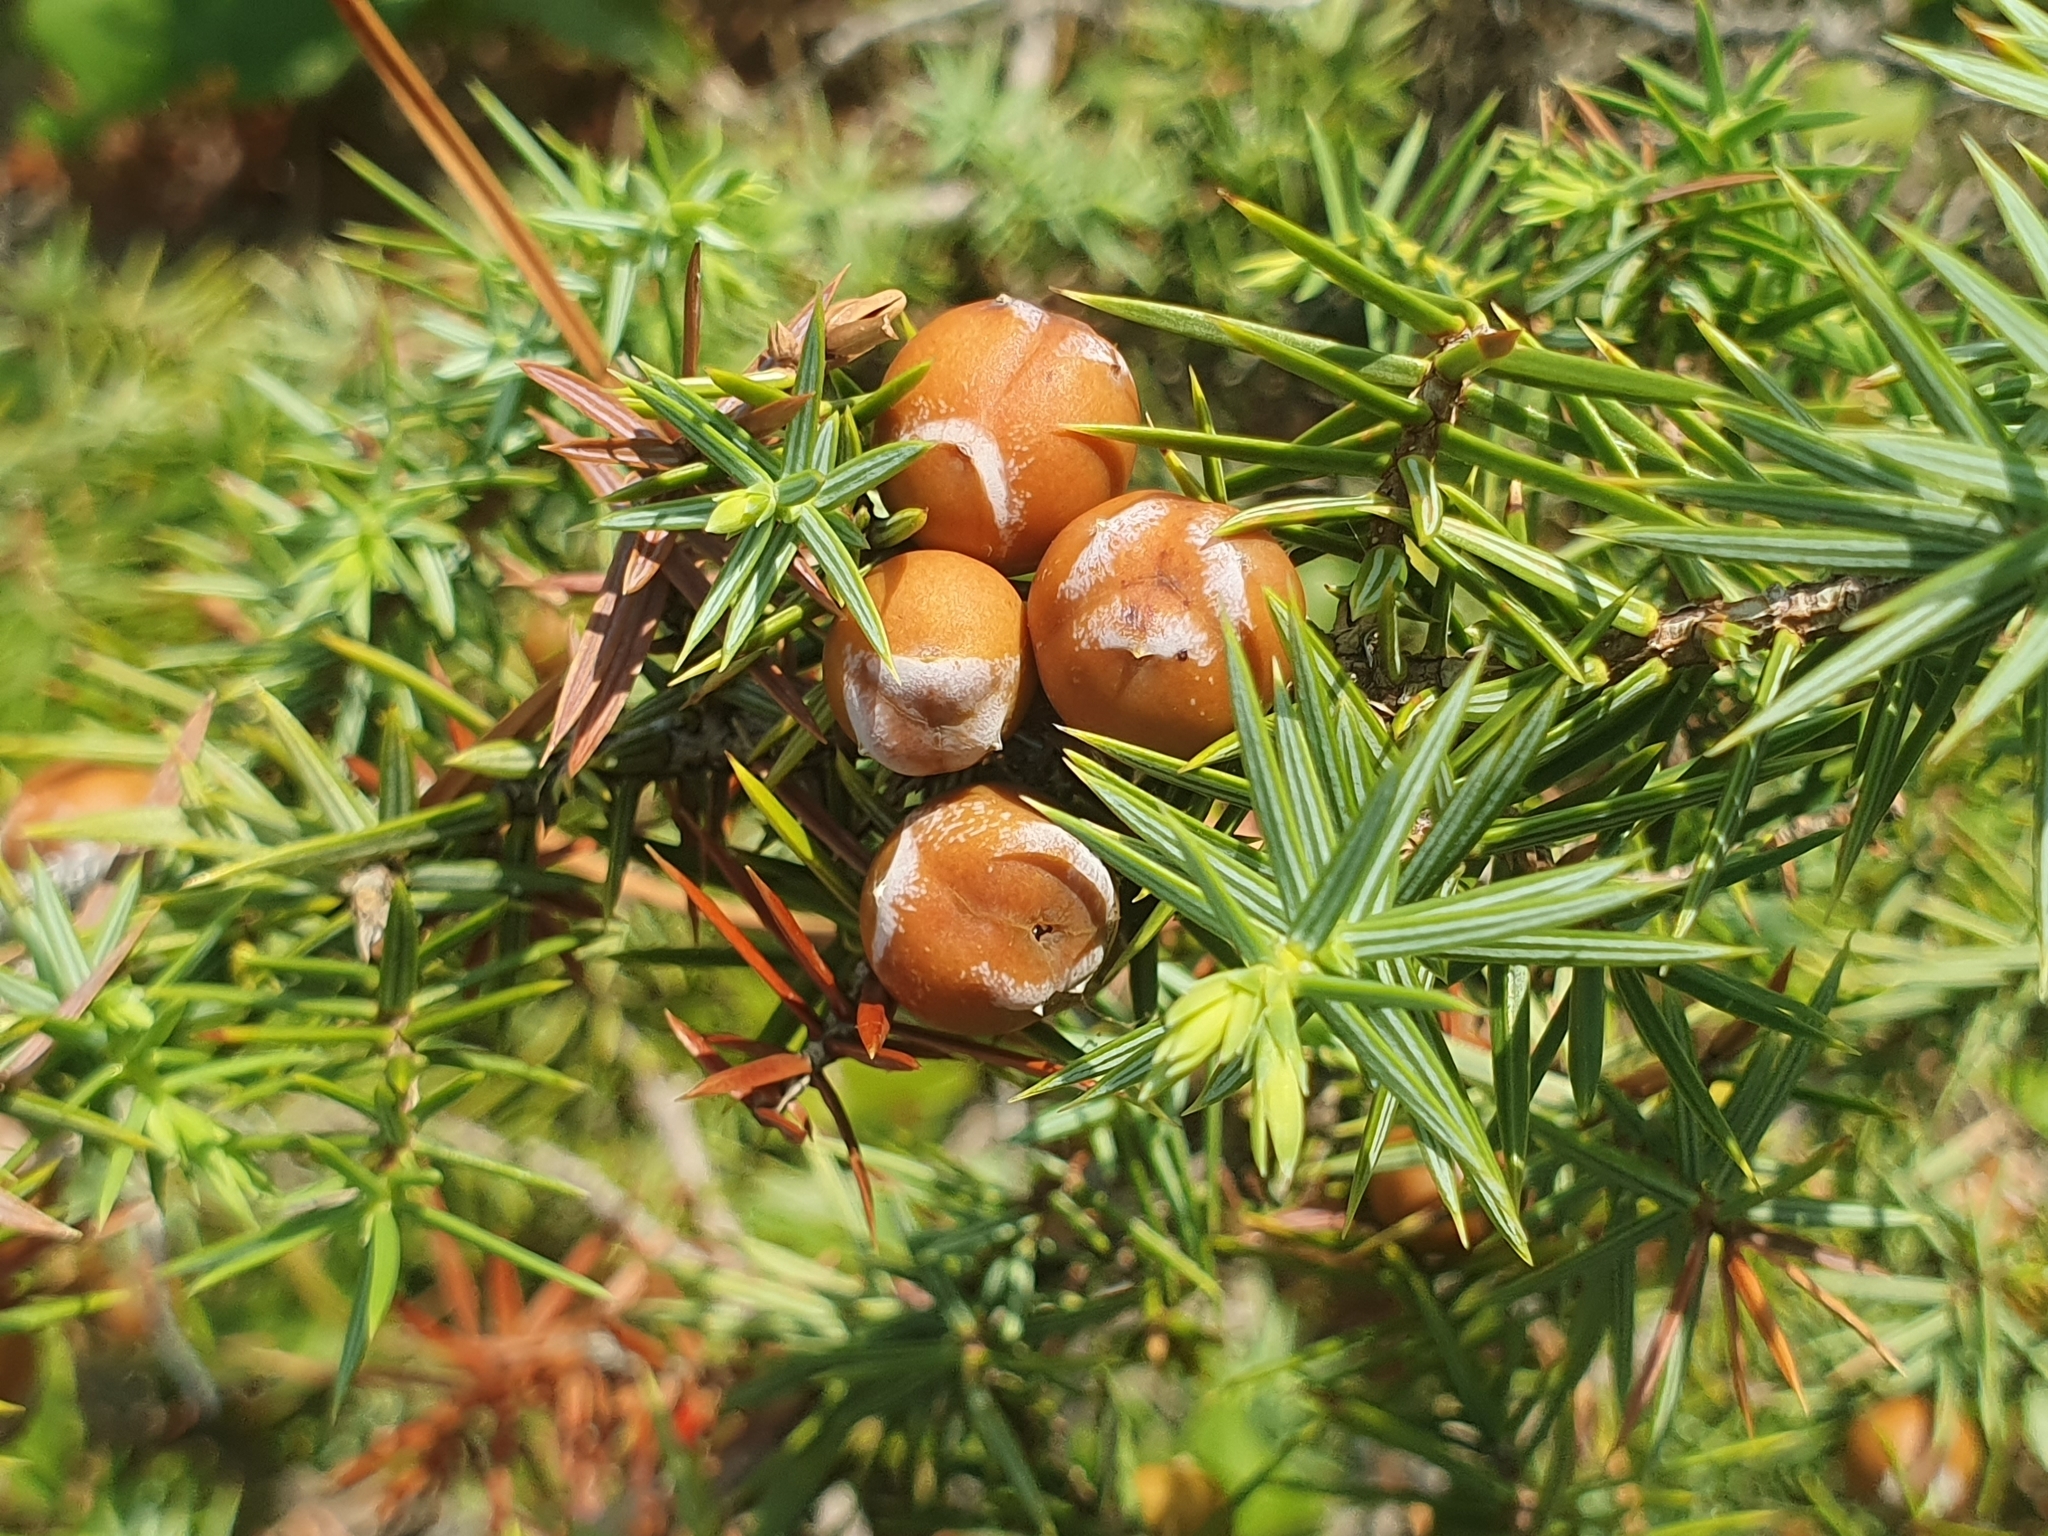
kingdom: Plantae
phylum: Tracheophyta
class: Pinopsida
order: Pinales
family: Cupressaceae
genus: Juniperus
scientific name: Juniperus oxycedrus
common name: Prickly juniper
